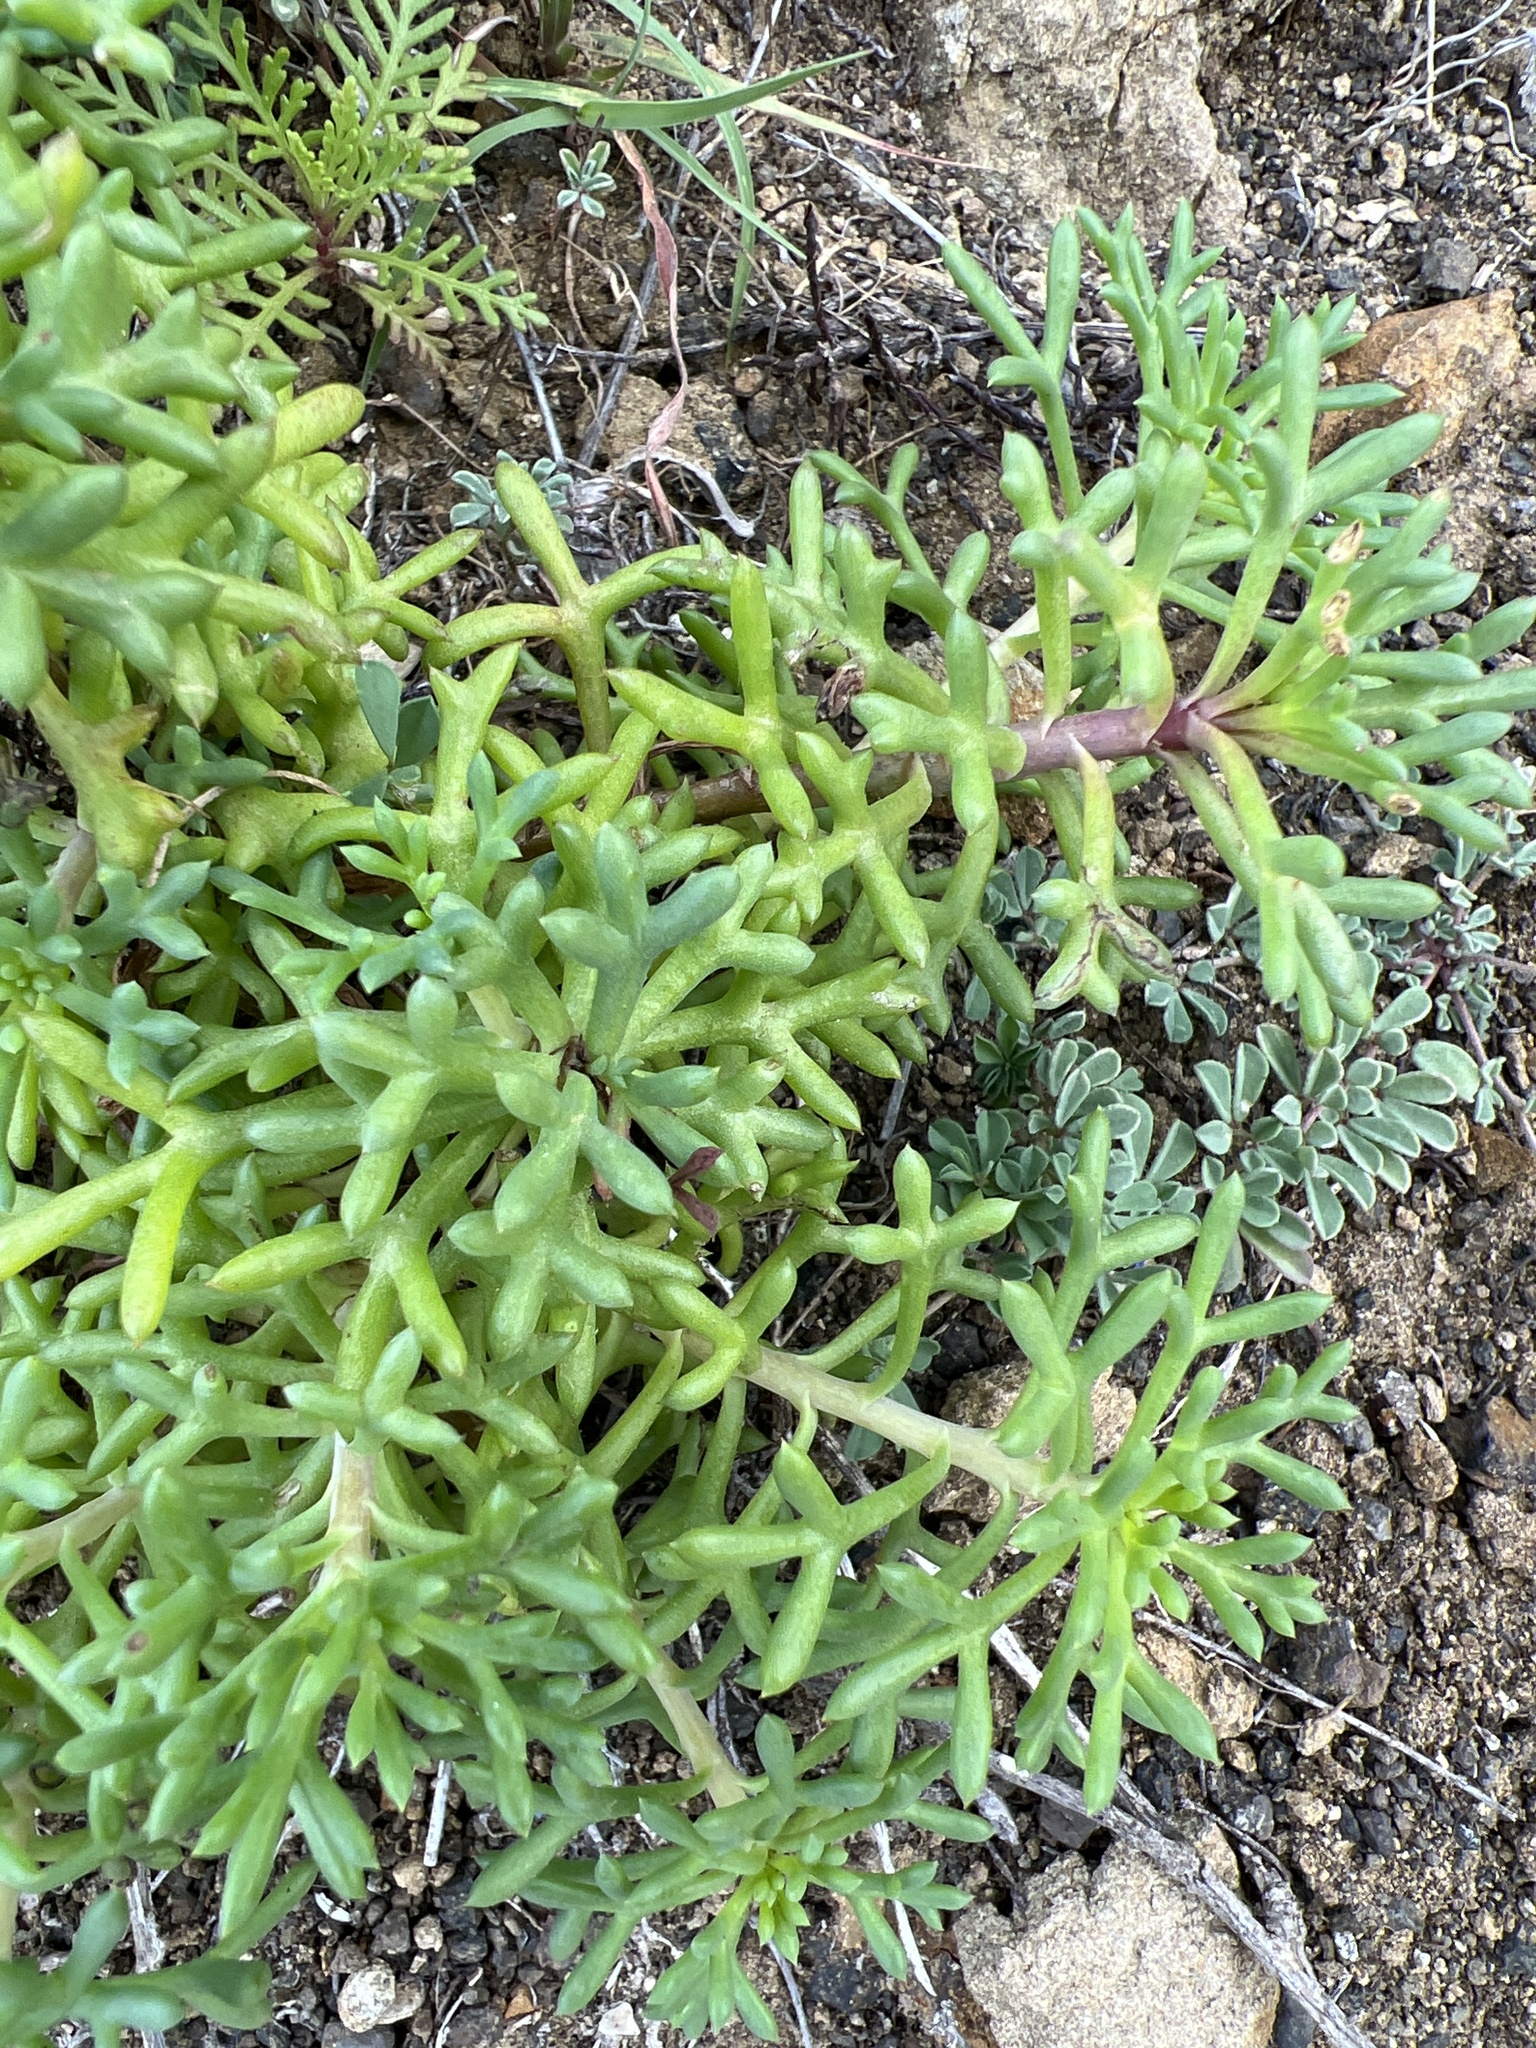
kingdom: Plantae
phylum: Tracheophyta
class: Magnoliopsida
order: Asterales
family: Asteraceae
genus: Argyranthemum
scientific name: Argyranthemum frutescens
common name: Paris daisy
